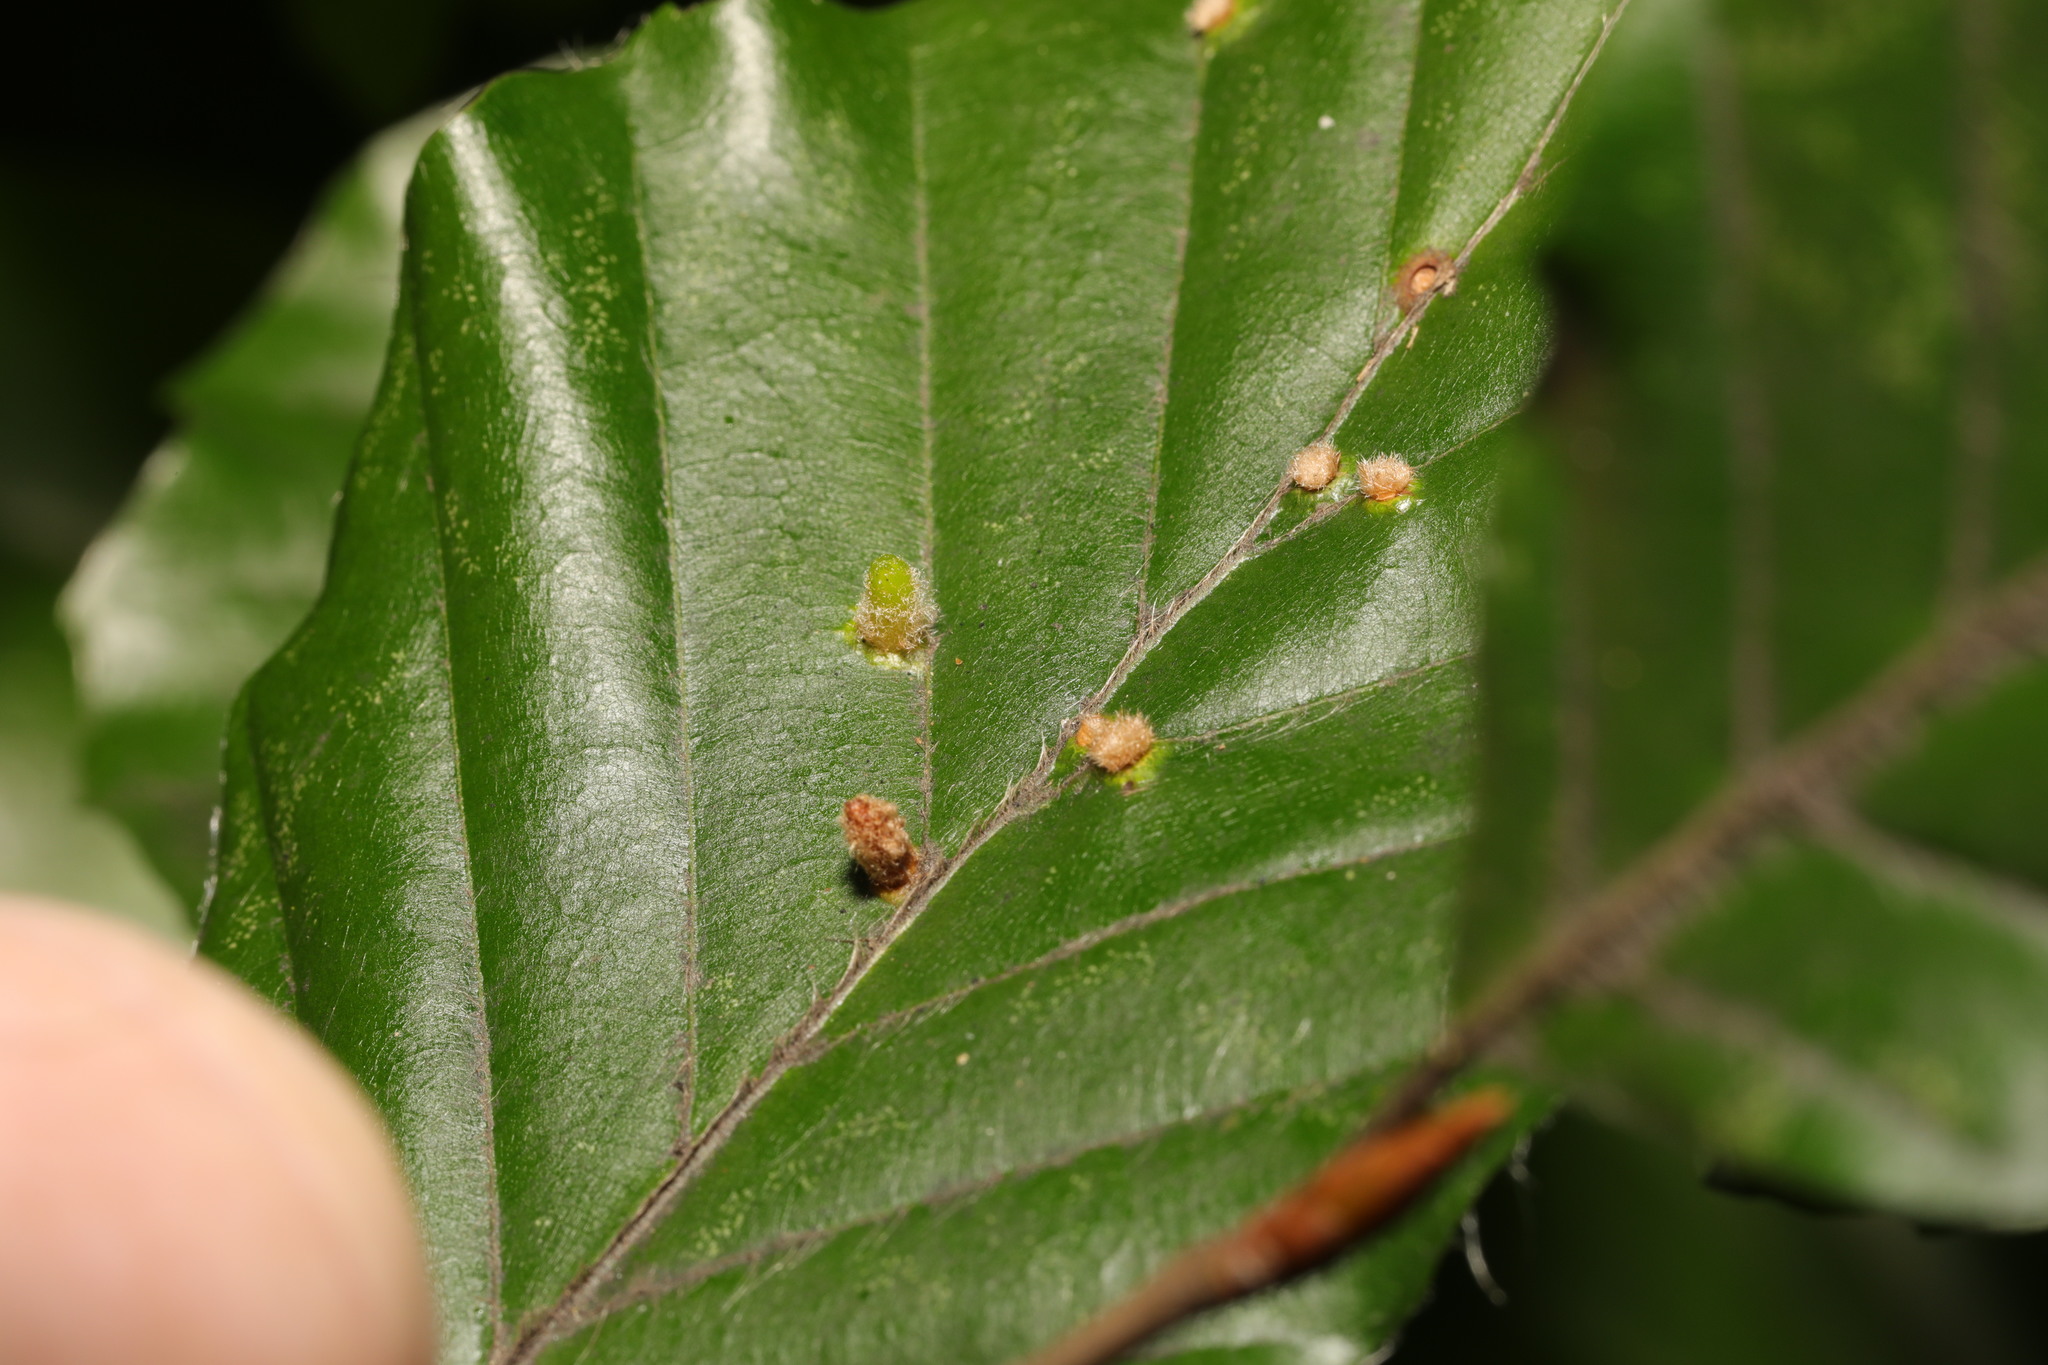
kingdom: Animalia
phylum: Arthropoda
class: Insecta
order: Diptera
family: Cecidomyiidae
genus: Hartigiola
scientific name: Hartigiola annulipes
